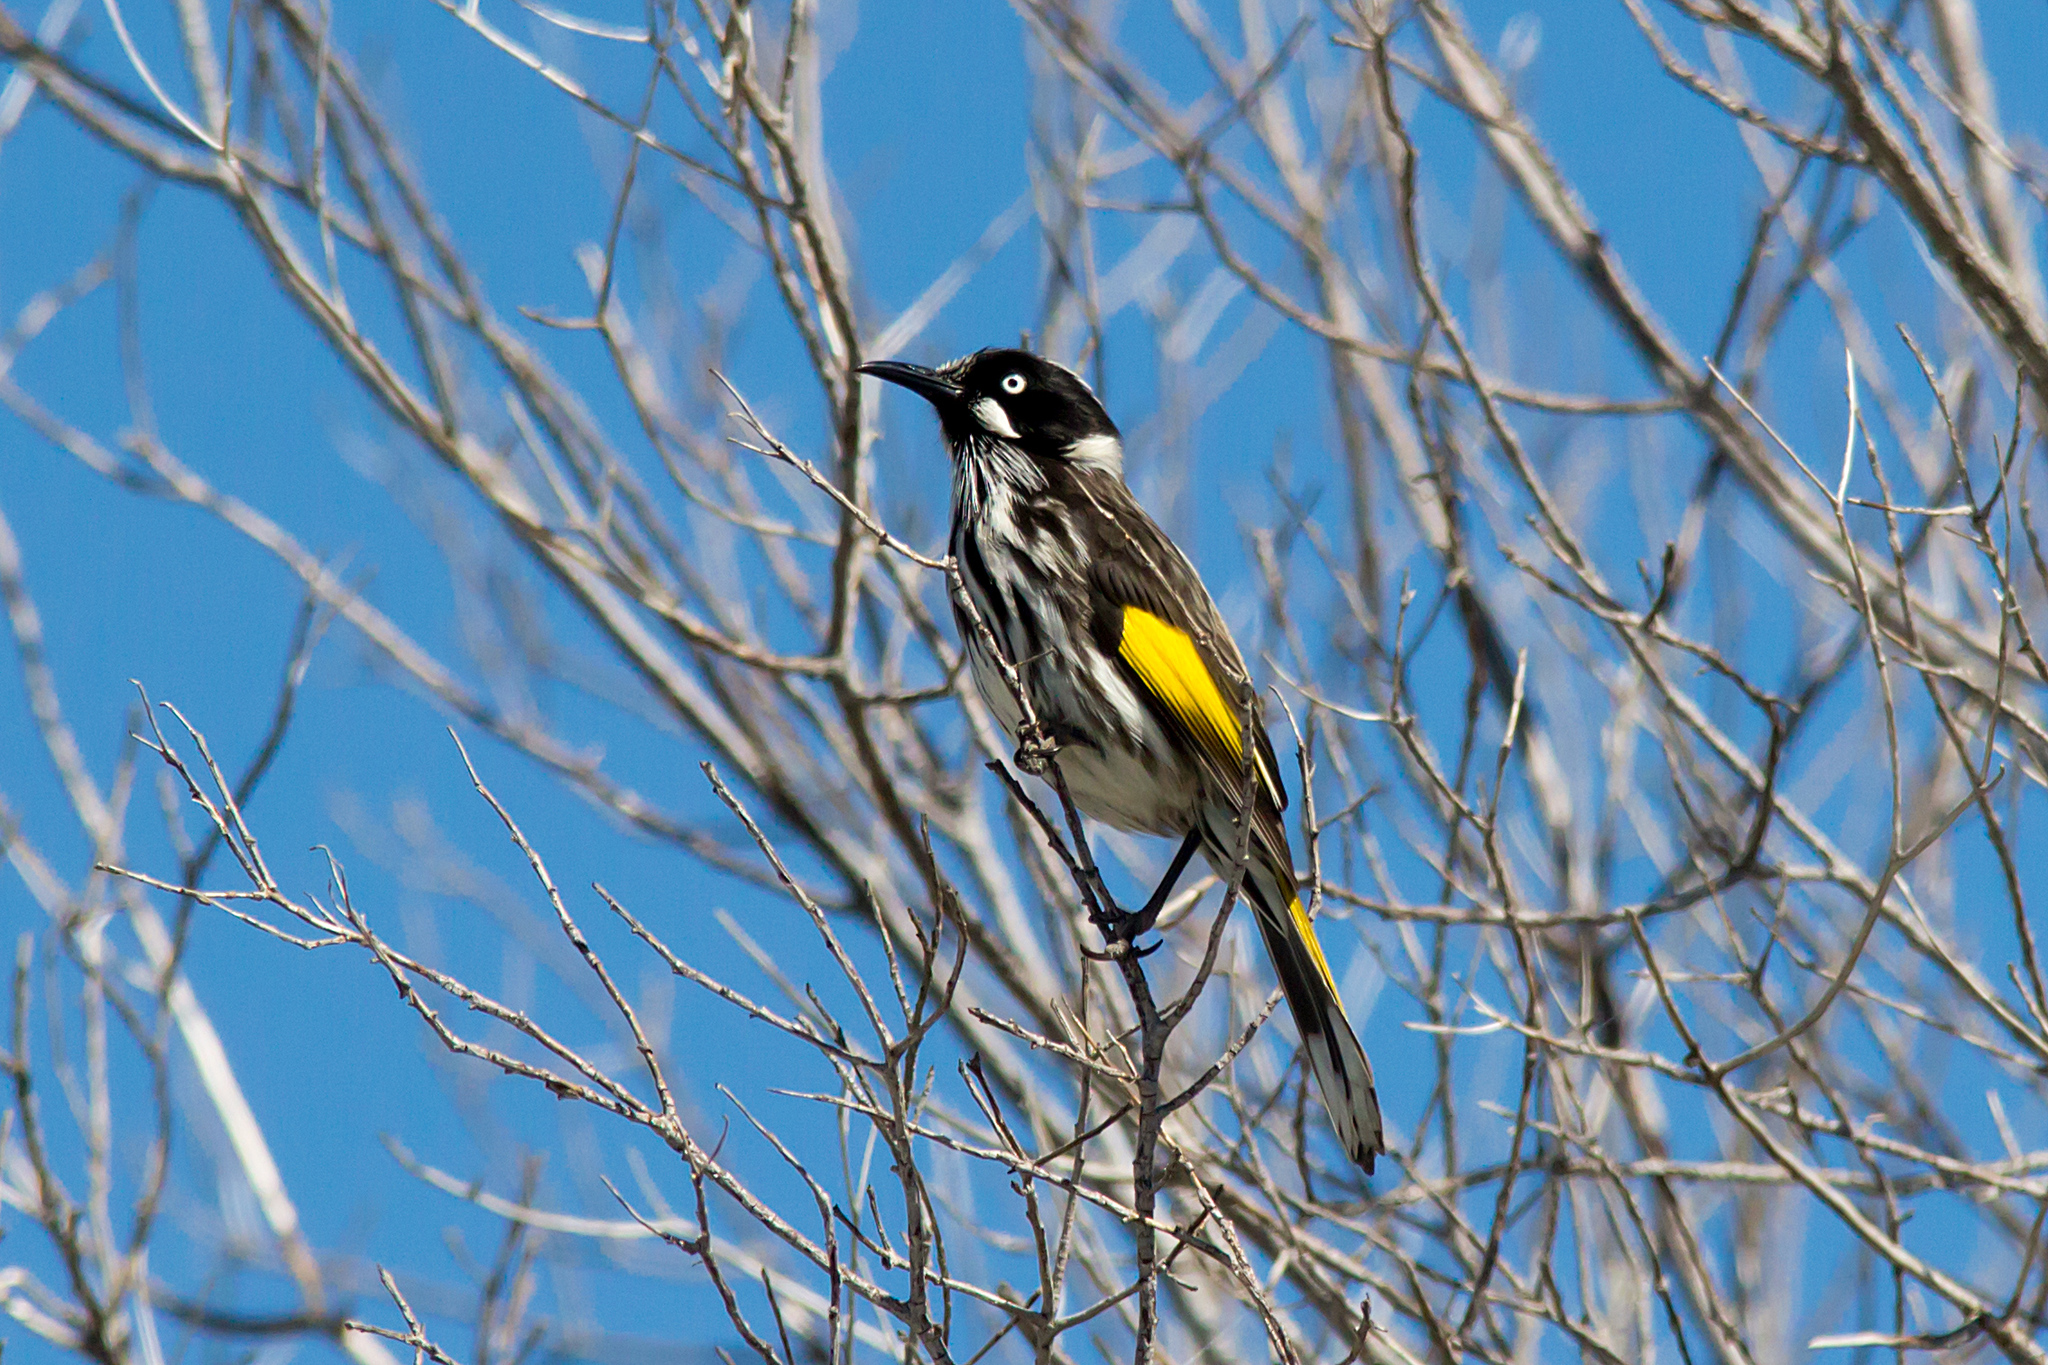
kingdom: Animalia
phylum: Chordata
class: Aves
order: Passeriformes
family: Meliphagidae
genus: Phylidonyris
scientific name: Phylidonyris novaehollandiae
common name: New holland honeyeater
